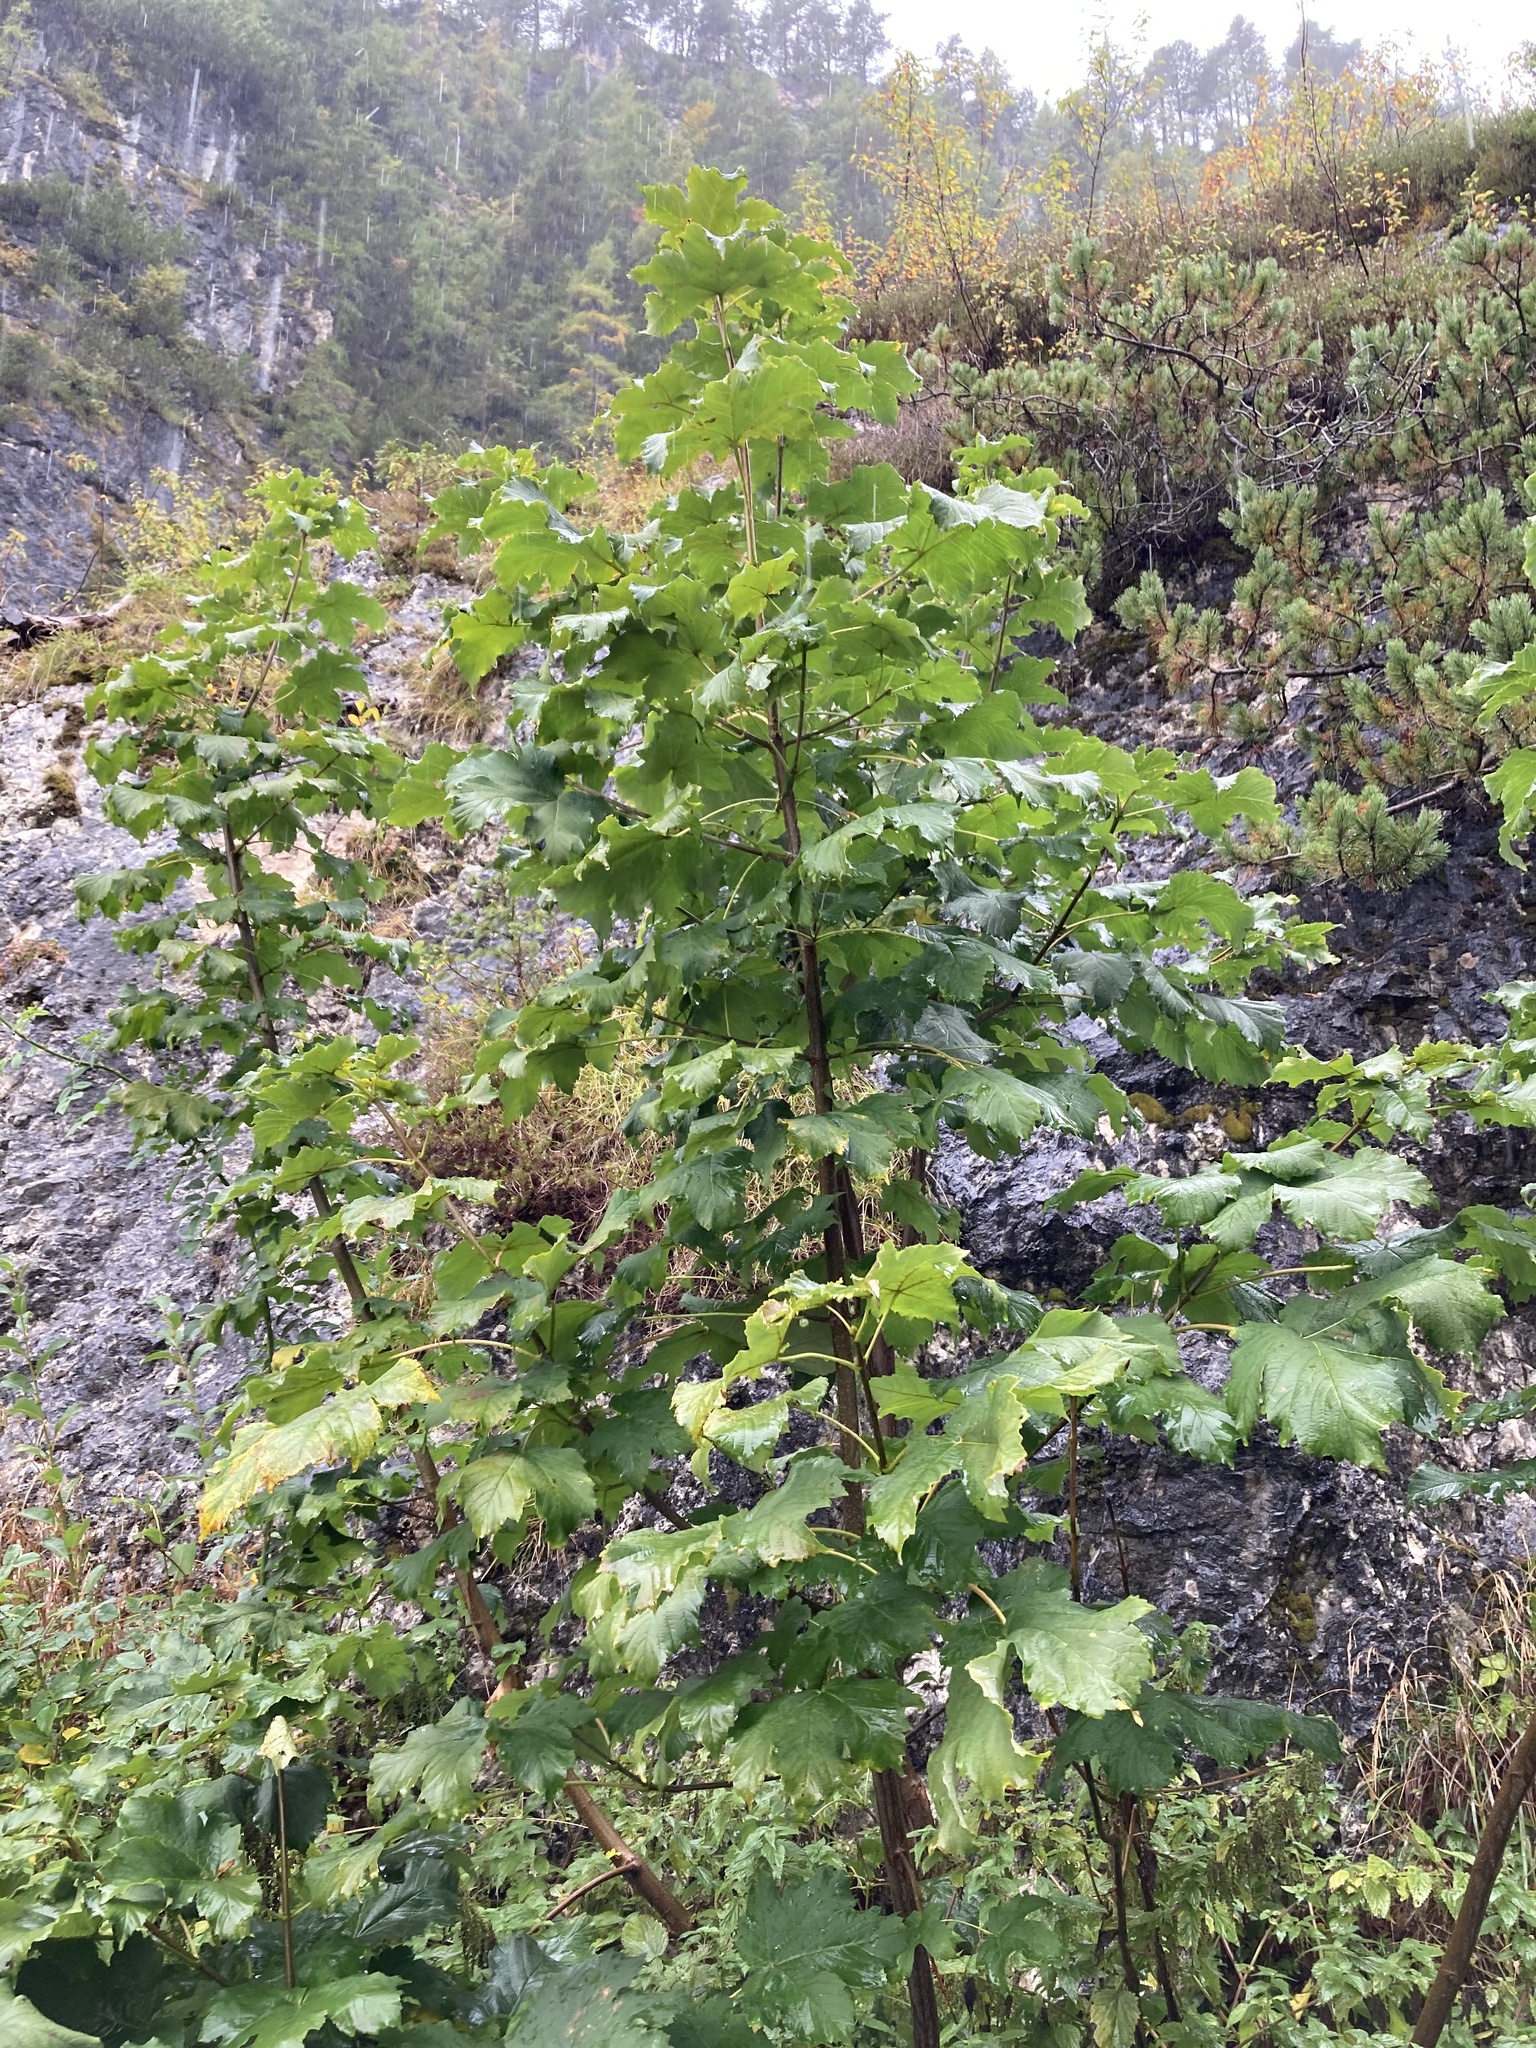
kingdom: Plantae
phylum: Tracheophyta
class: Magnoliopsida
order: Sapindales
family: Sapindaceae
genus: Acer
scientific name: Acer pseudoplatanus
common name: Sycamore
